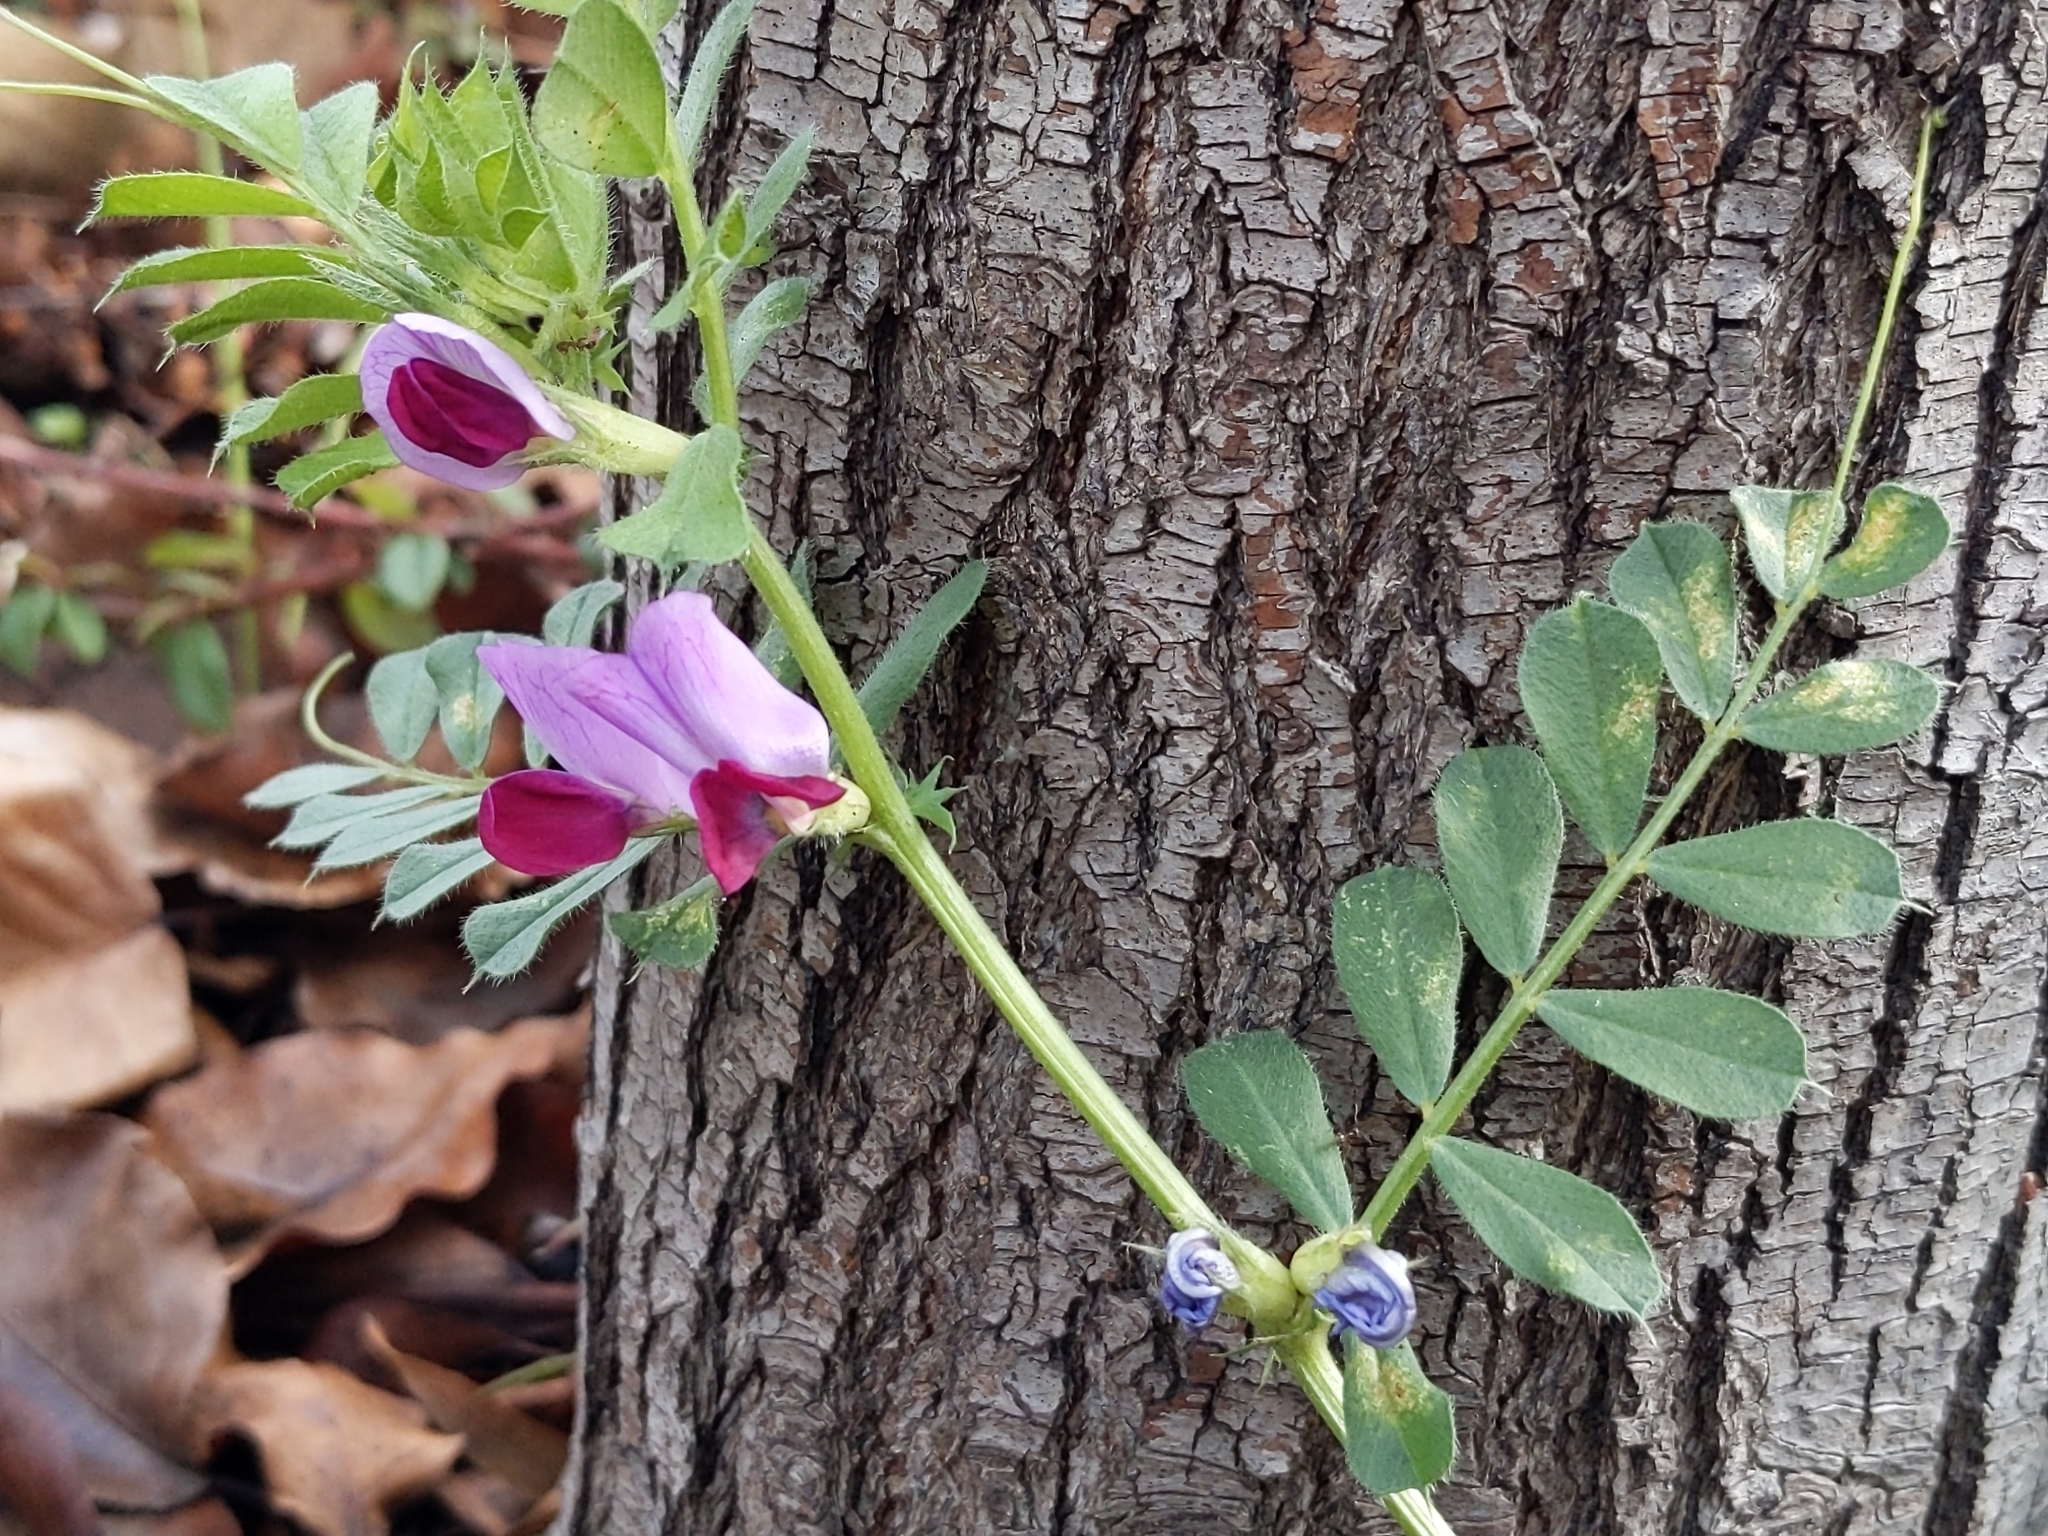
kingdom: Plantae
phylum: Tracheophyta
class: Magnoliopsida
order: Fabales
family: Fabaceae
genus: Vicia
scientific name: Vicia sativa
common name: Garden vetch
